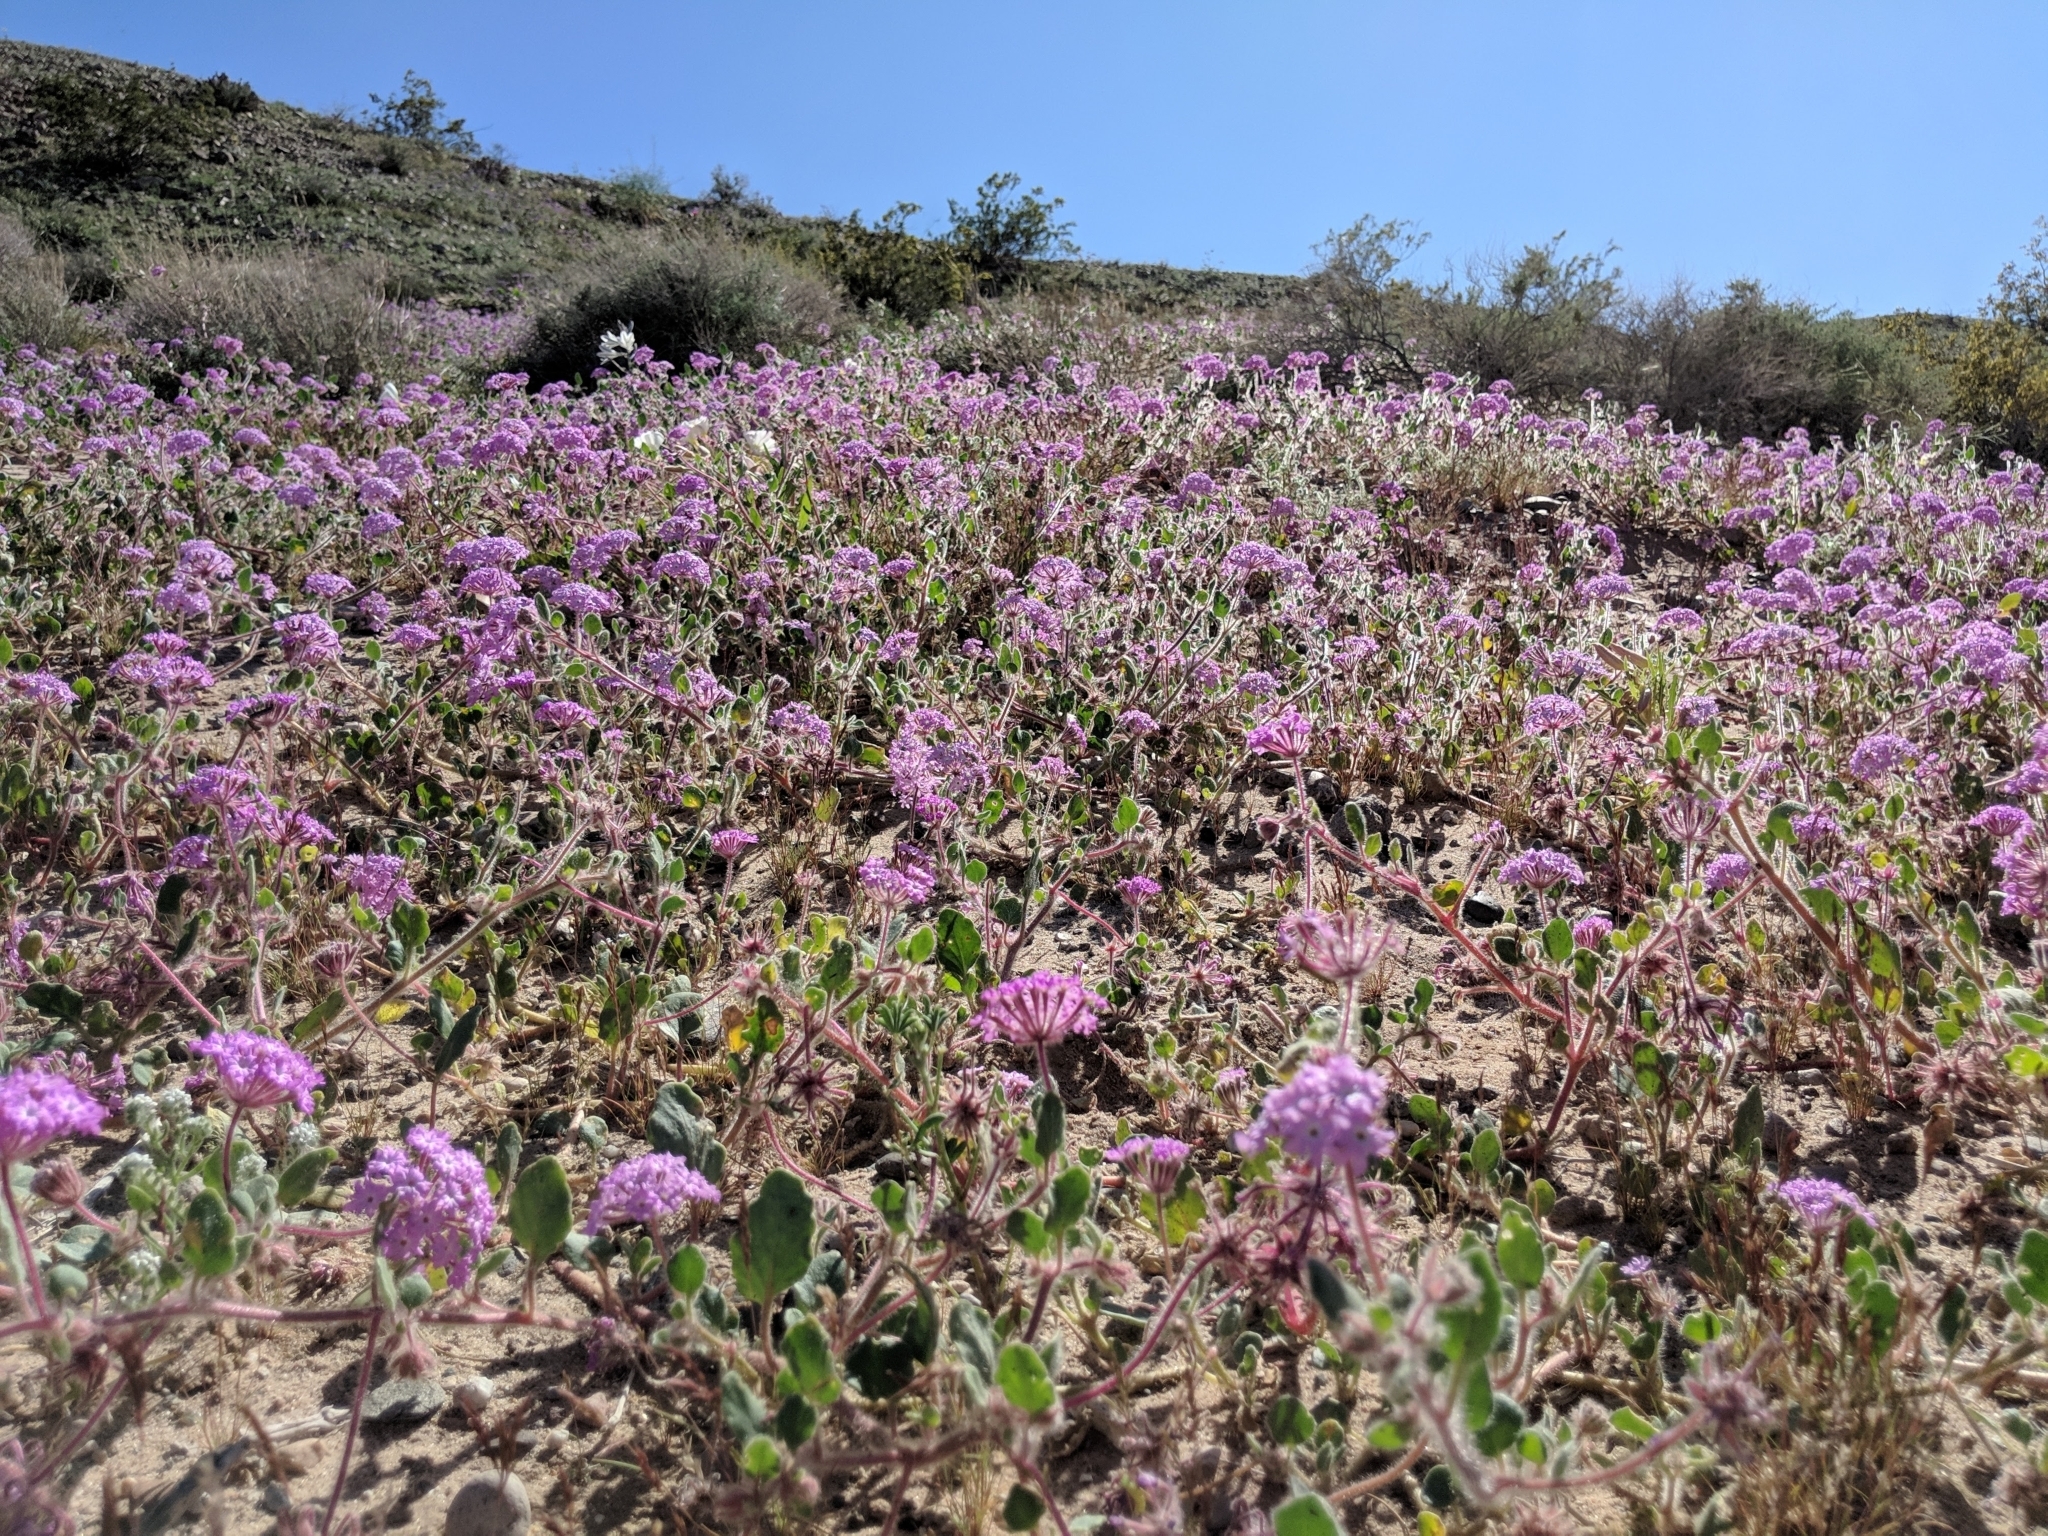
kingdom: Plantae
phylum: Tracheophyta
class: Magnoliopsida
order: Caryophyllales
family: Nyctaginaceae
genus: Abronia
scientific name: Abronia villosa
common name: Desert sand-verbena
